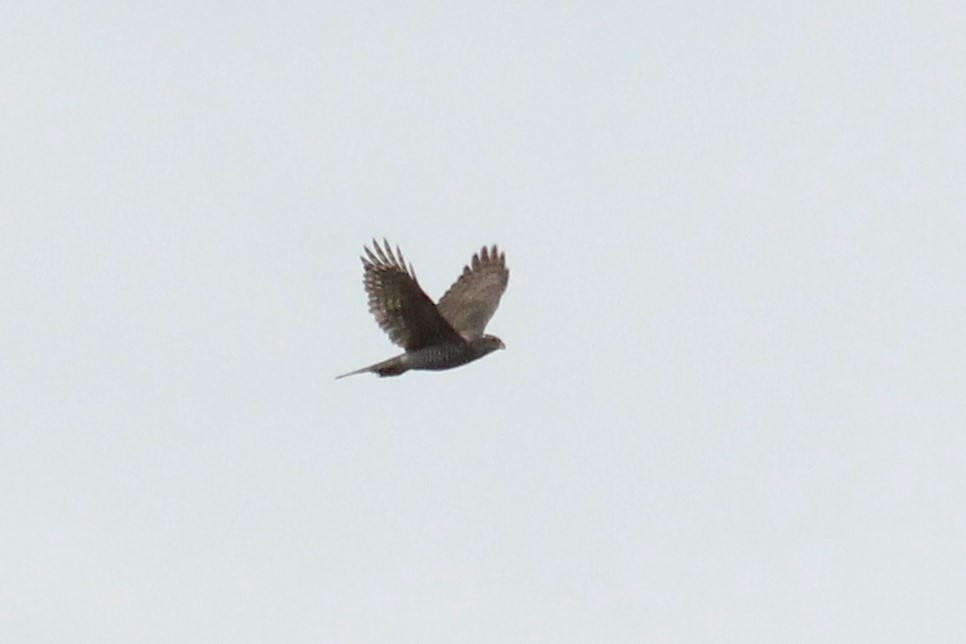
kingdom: Animalia
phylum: Chordata
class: Aves
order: Accipitriformes
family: Accipitridae
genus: Accipiter
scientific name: Accipiter nisus
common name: Eurasian sparrowhawk
